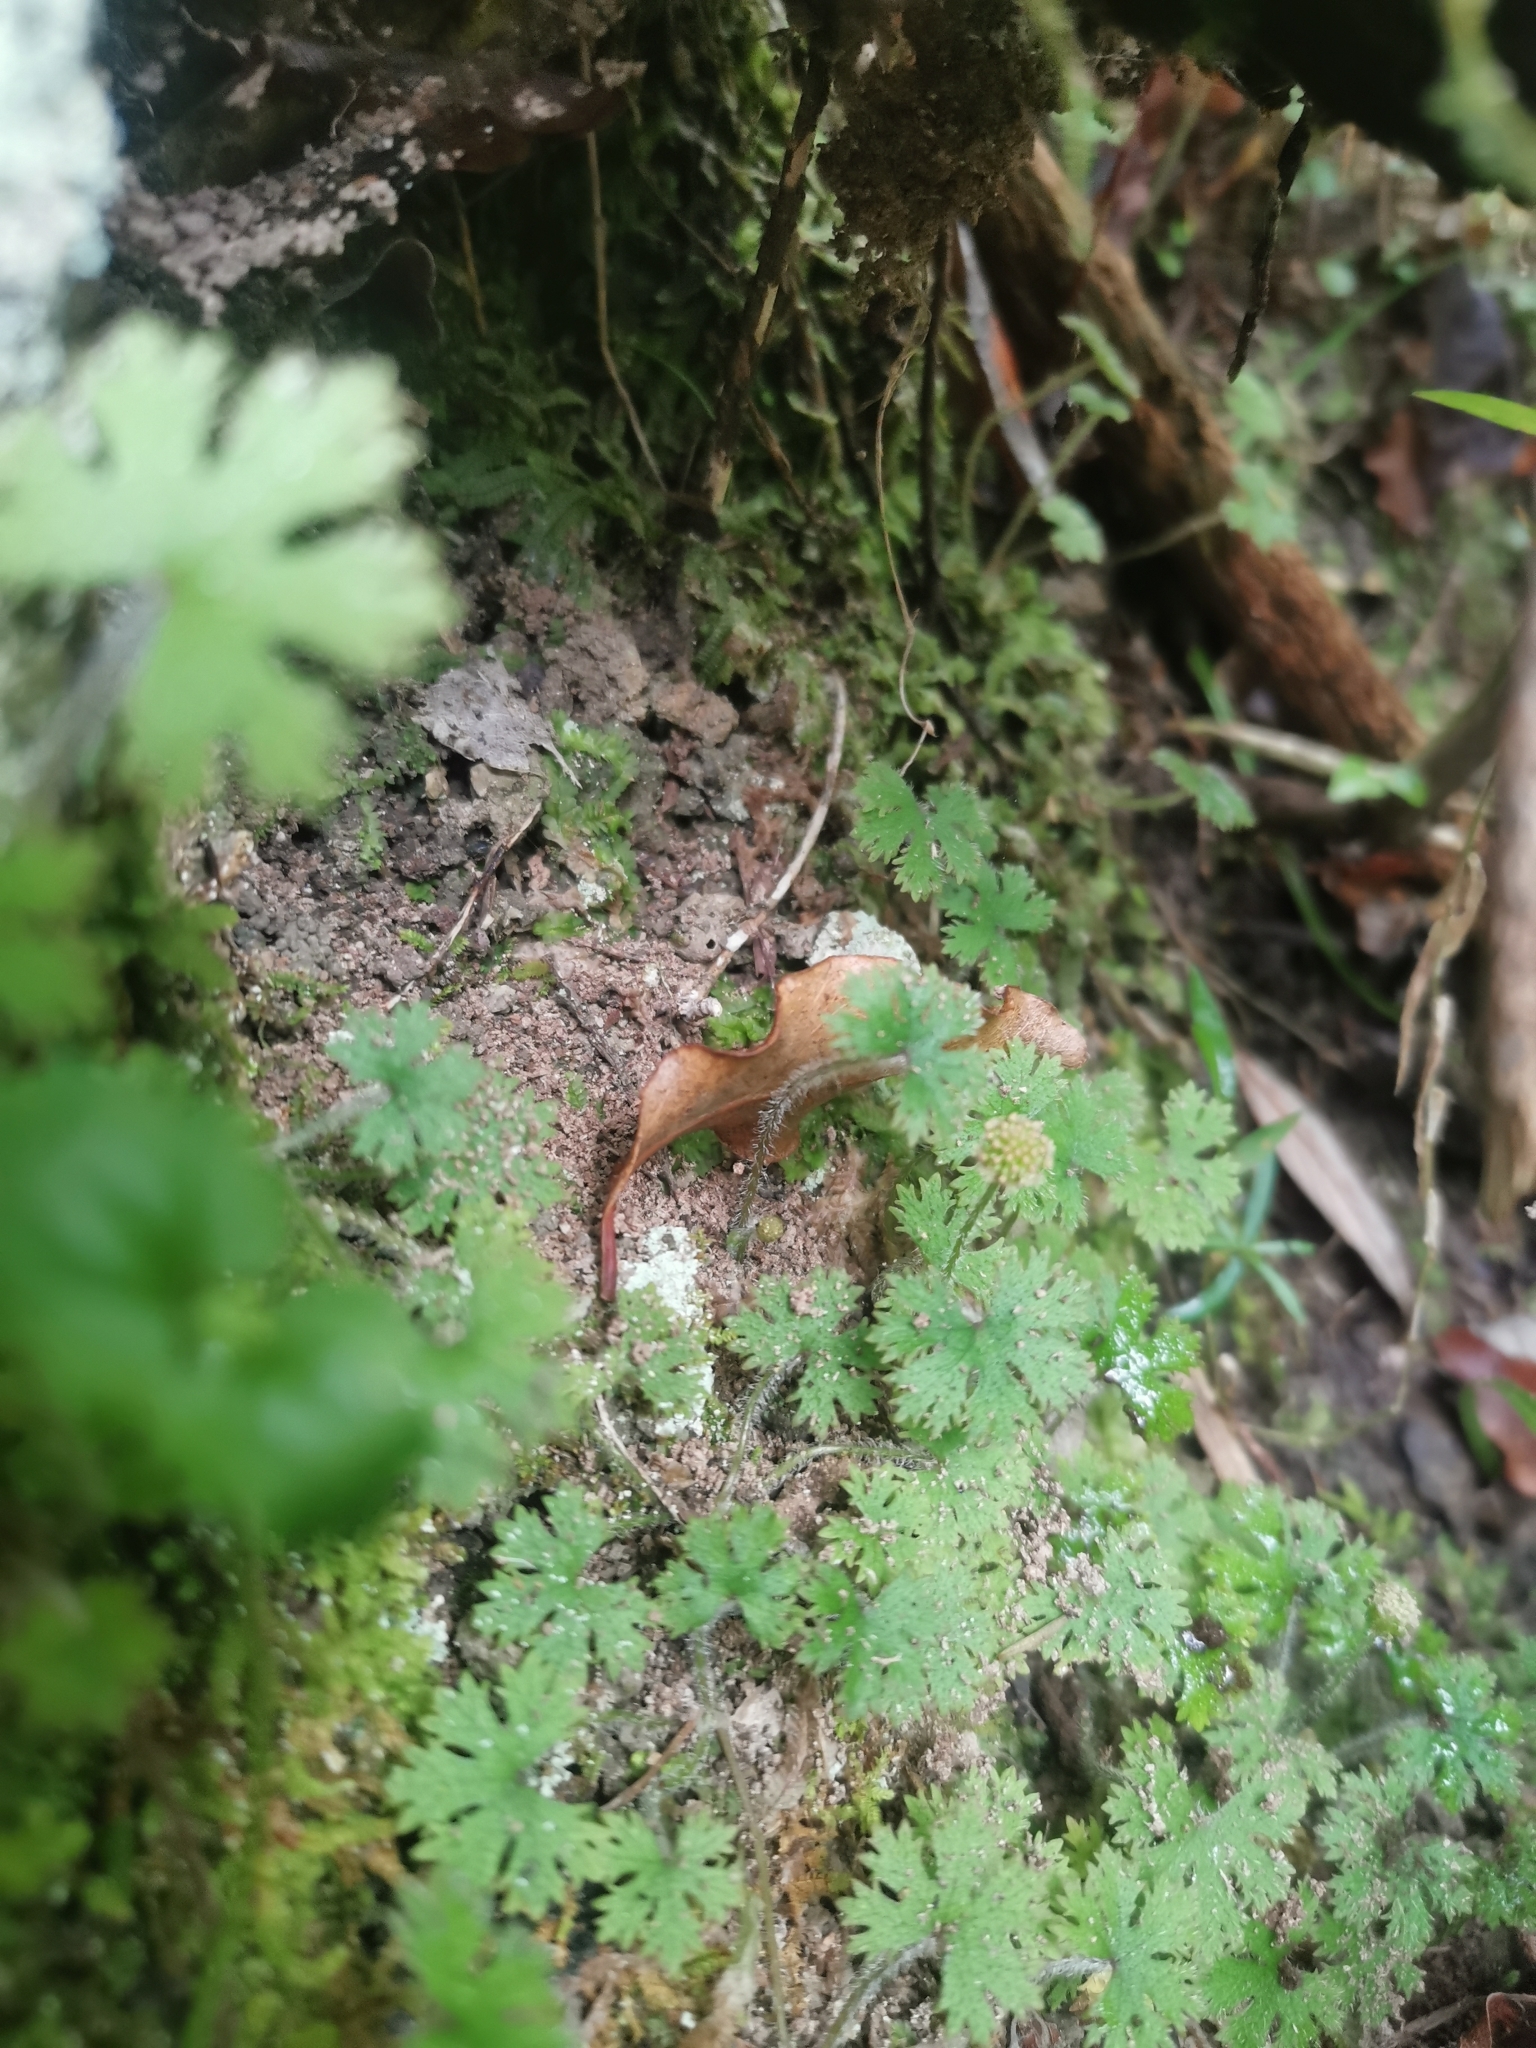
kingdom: Plantae
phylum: Tracheophyta
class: Magnoliopsida
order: Apiales
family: Araliaceae
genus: Hydrocotyle
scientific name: Hydrocotyle dissecta
